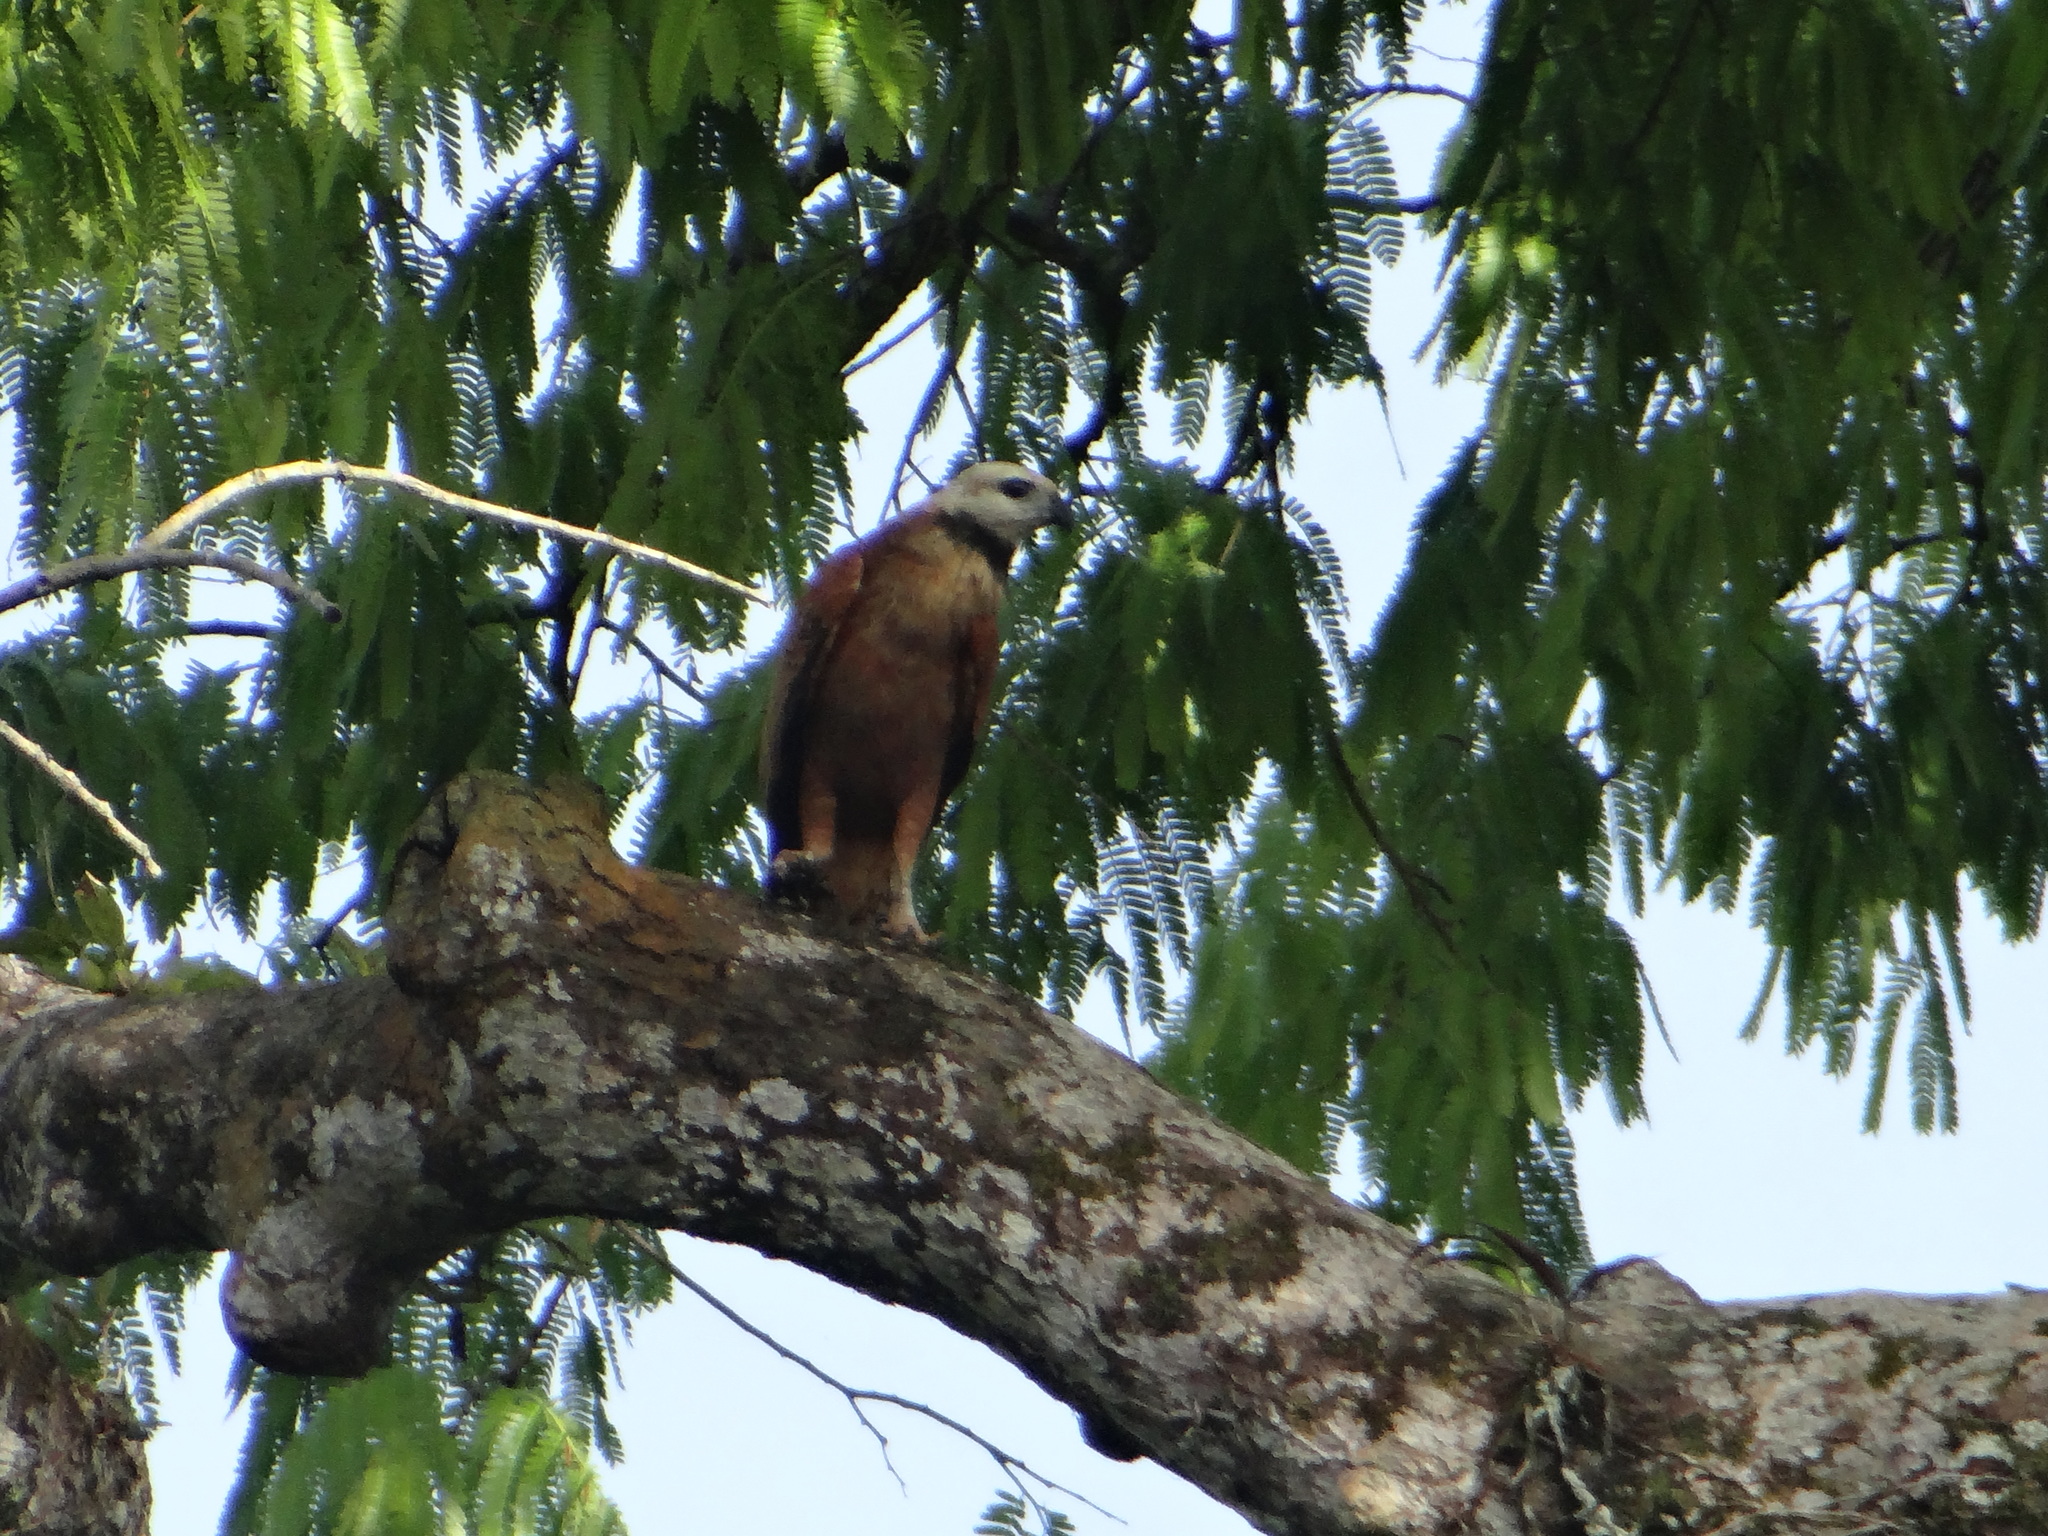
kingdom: Animalia
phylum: Chordata
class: Aves
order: Accipitriformes
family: Accipitridae
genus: Busarellus
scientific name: Busarellus nigricollis
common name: Black-collared hawk
